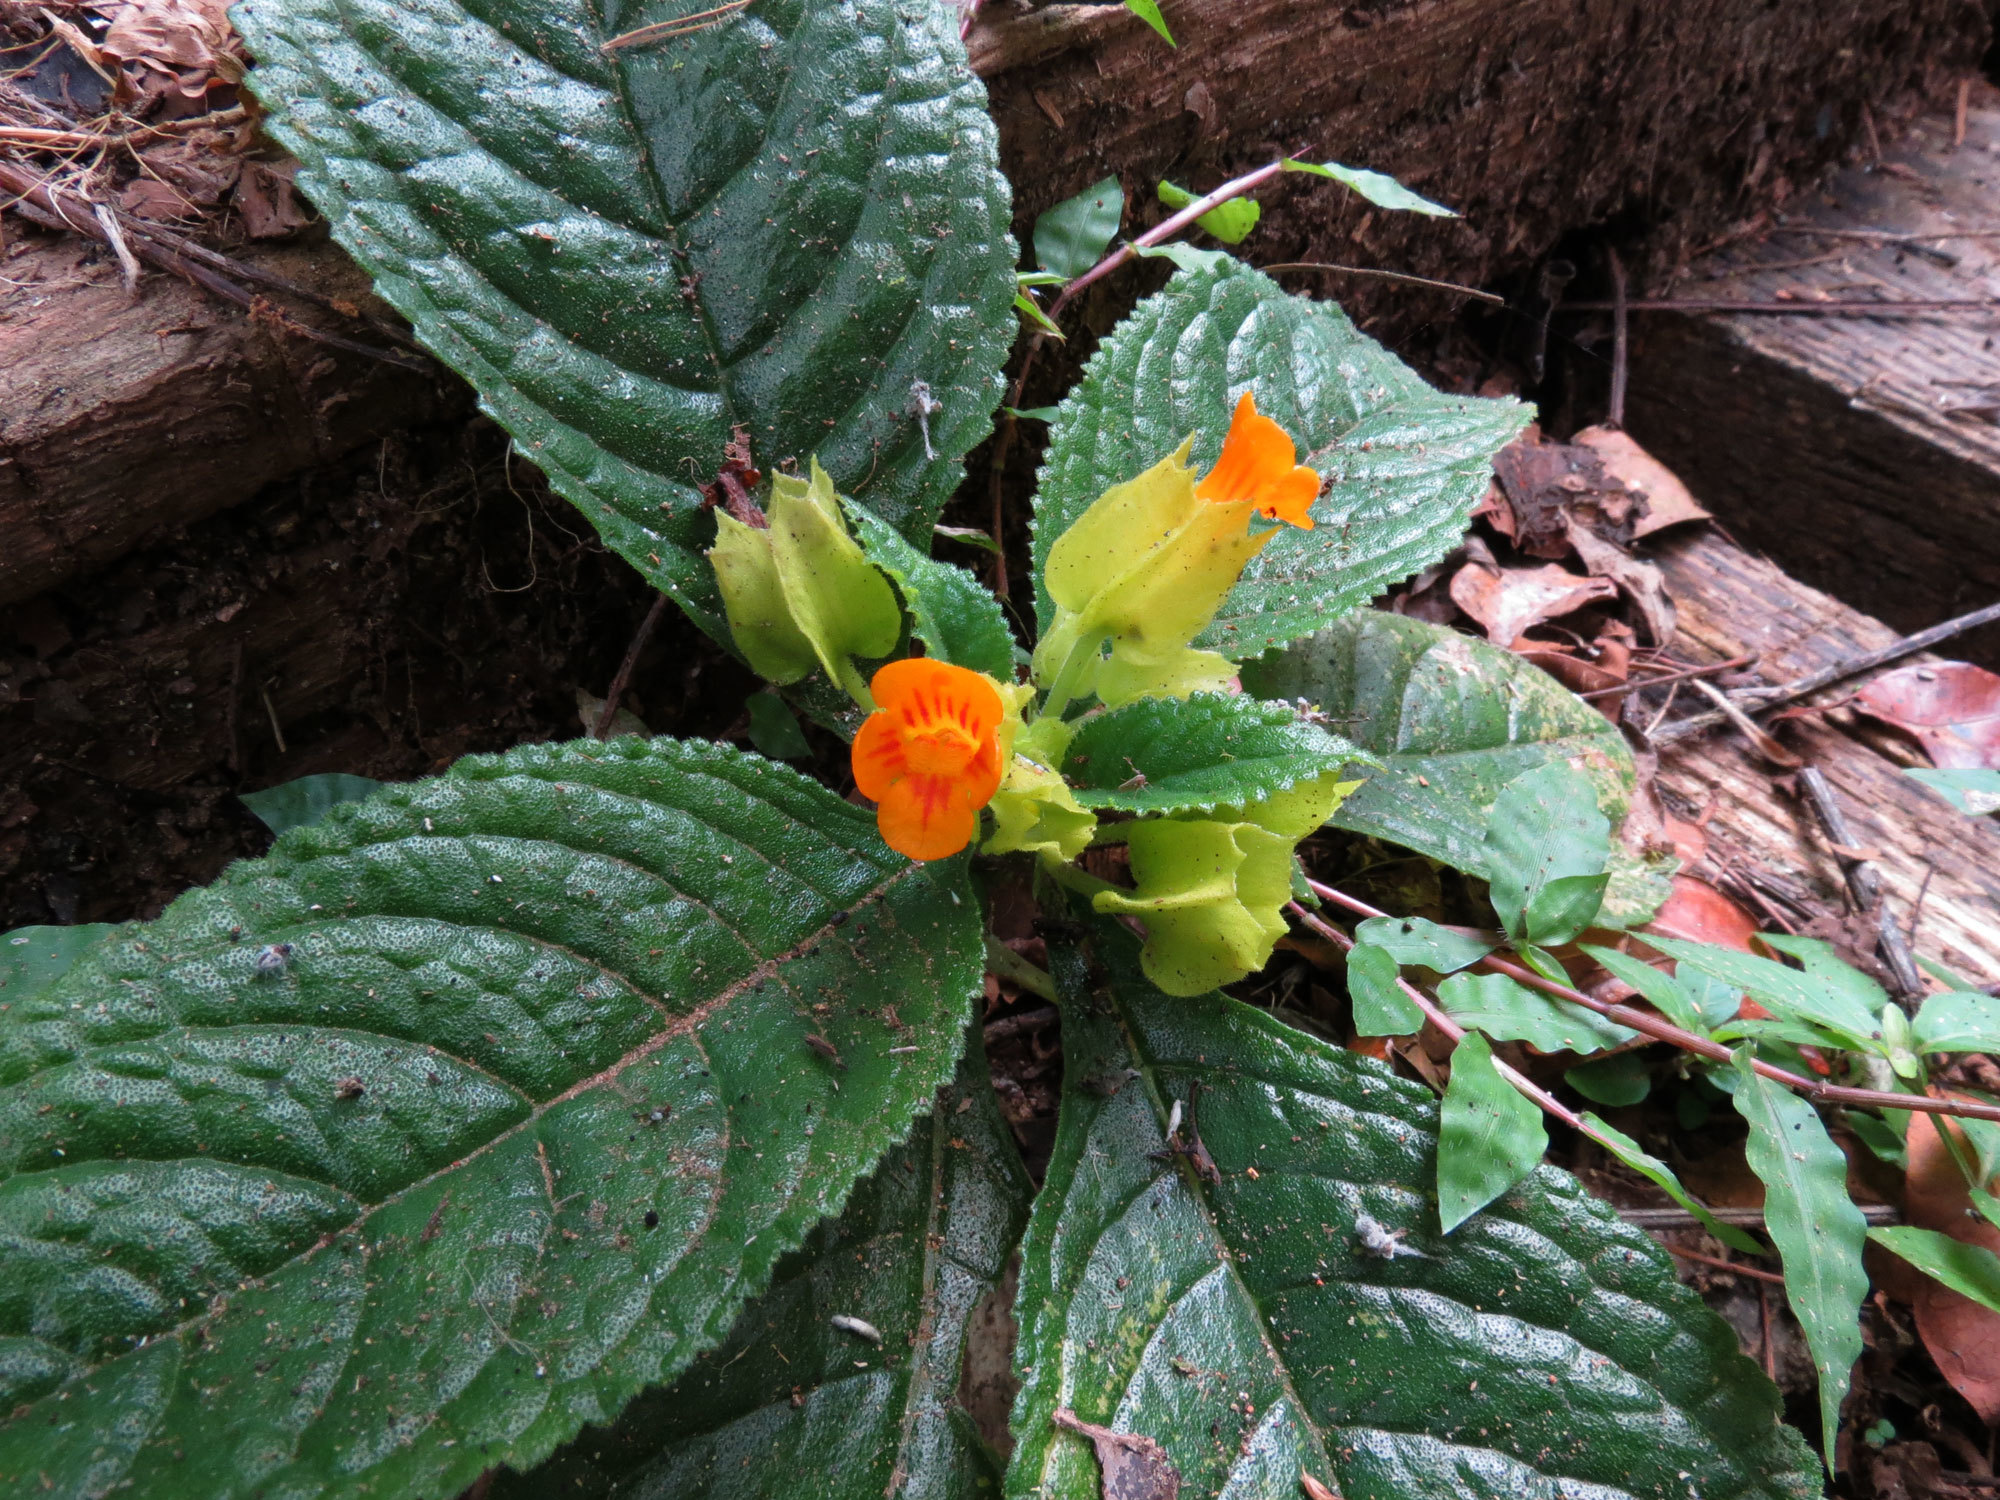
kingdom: Plantae
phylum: Tracheophyta
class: Magnoliopsida
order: Lamiales
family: Gesneriaceae
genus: Chrysothemis
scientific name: Chrysothemis friedrichsthaliana
